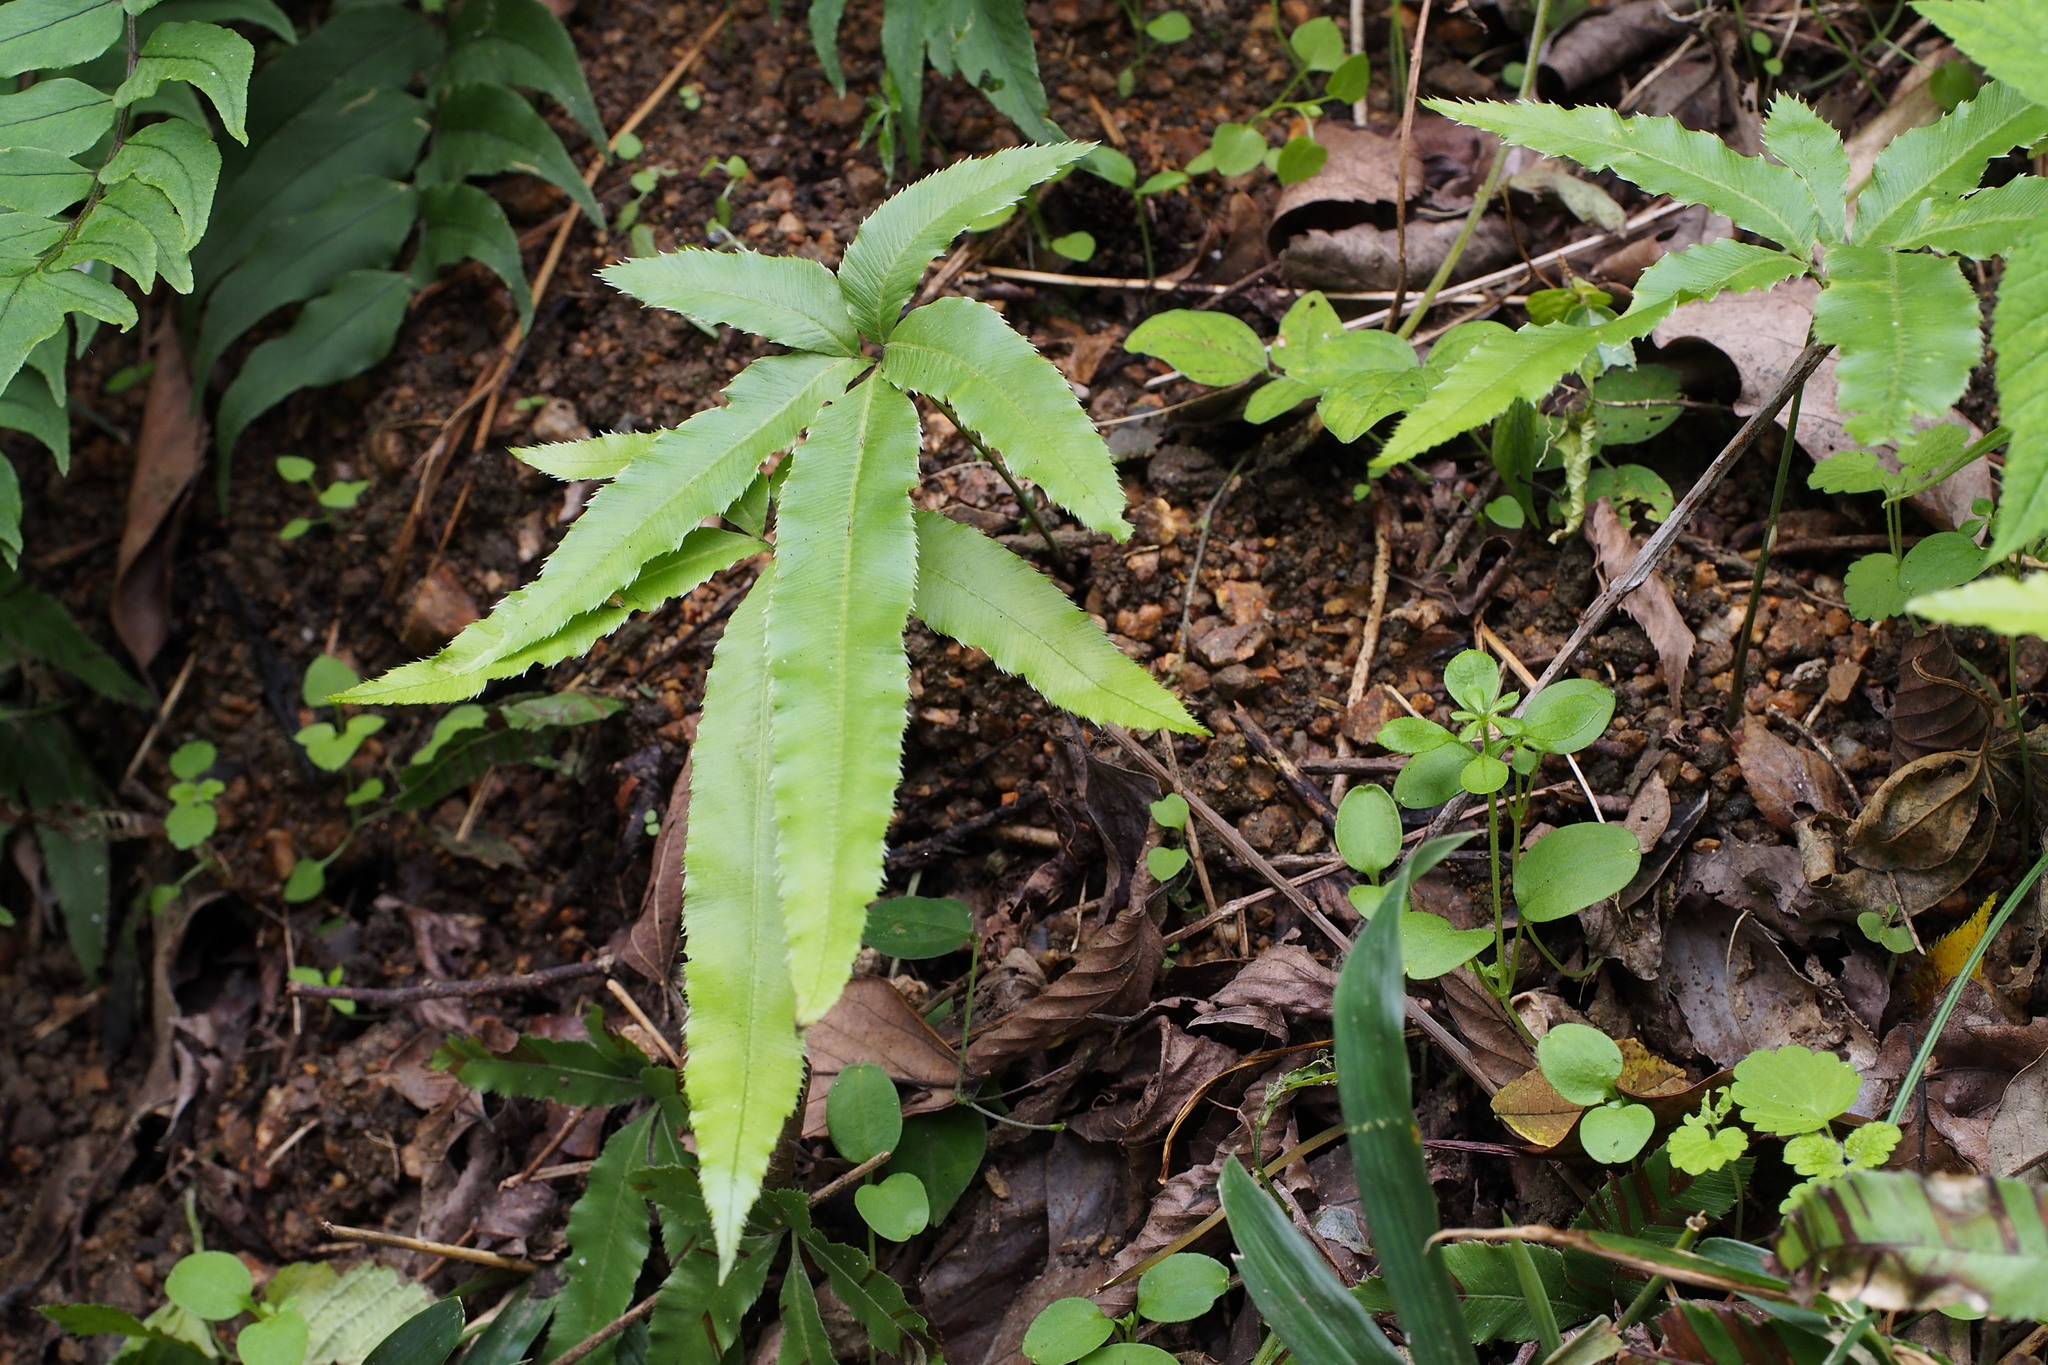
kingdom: Plantae
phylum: Tracheophyta
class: Polypodiopsida
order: Polypodiales
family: Pteridaceae
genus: Pteris
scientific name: Pteris cretica
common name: Ribbon fern
